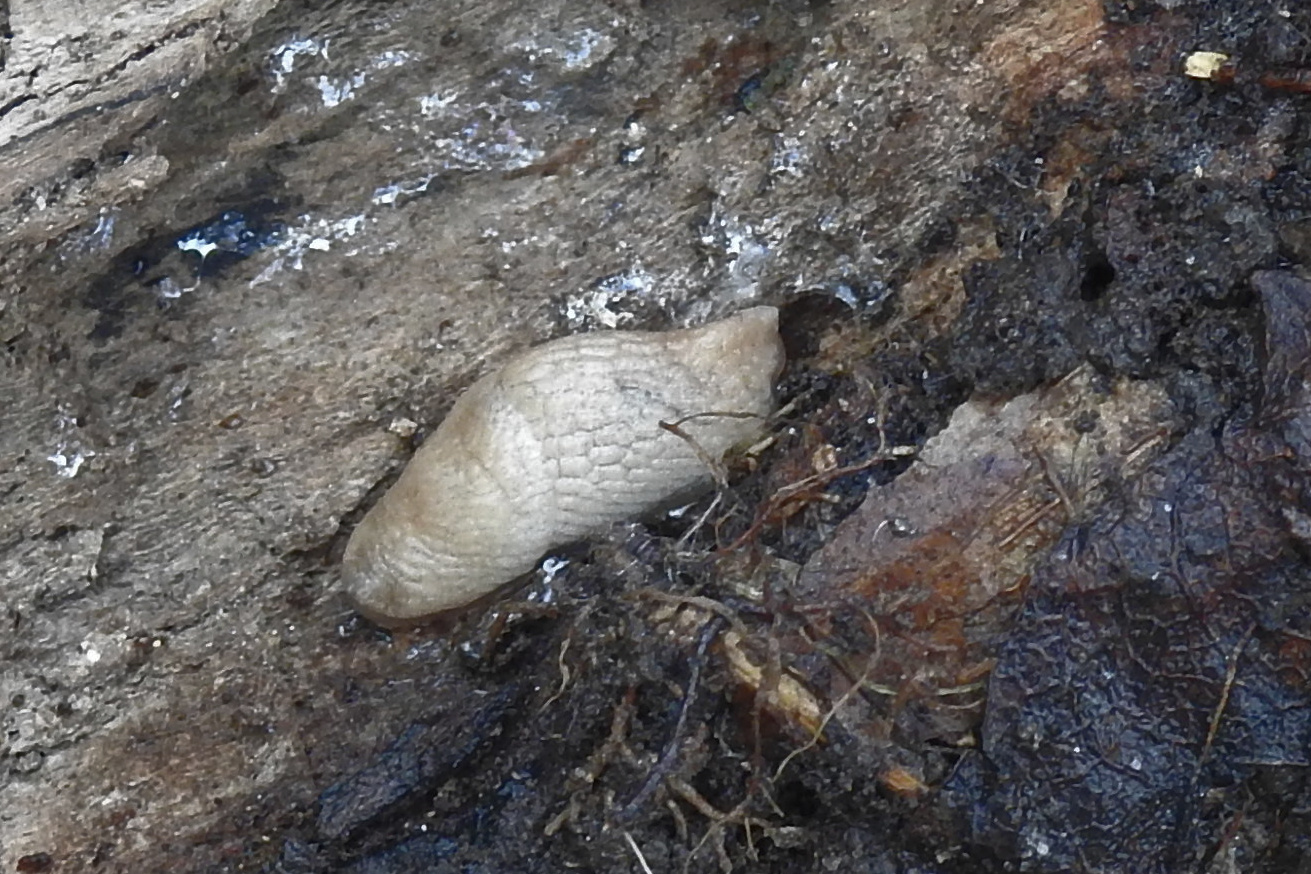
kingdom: Animalia
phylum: Mollusca
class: Gastropoda
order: Stylommatophora
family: Agriolimacidae
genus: Deroceras
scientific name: Deroceras reticulatum
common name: Gray field slug
